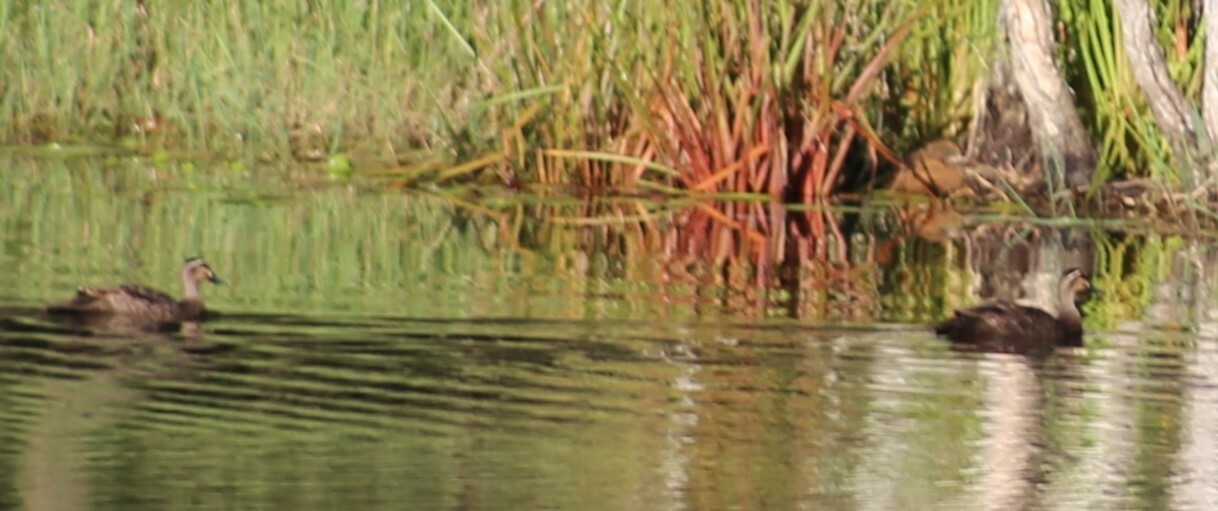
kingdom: Animalia
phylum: Chordata
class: Aves
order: Anseriformes
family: Anatidae
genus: Anas
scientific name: Anas superciliosa
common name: Pacific black duck
